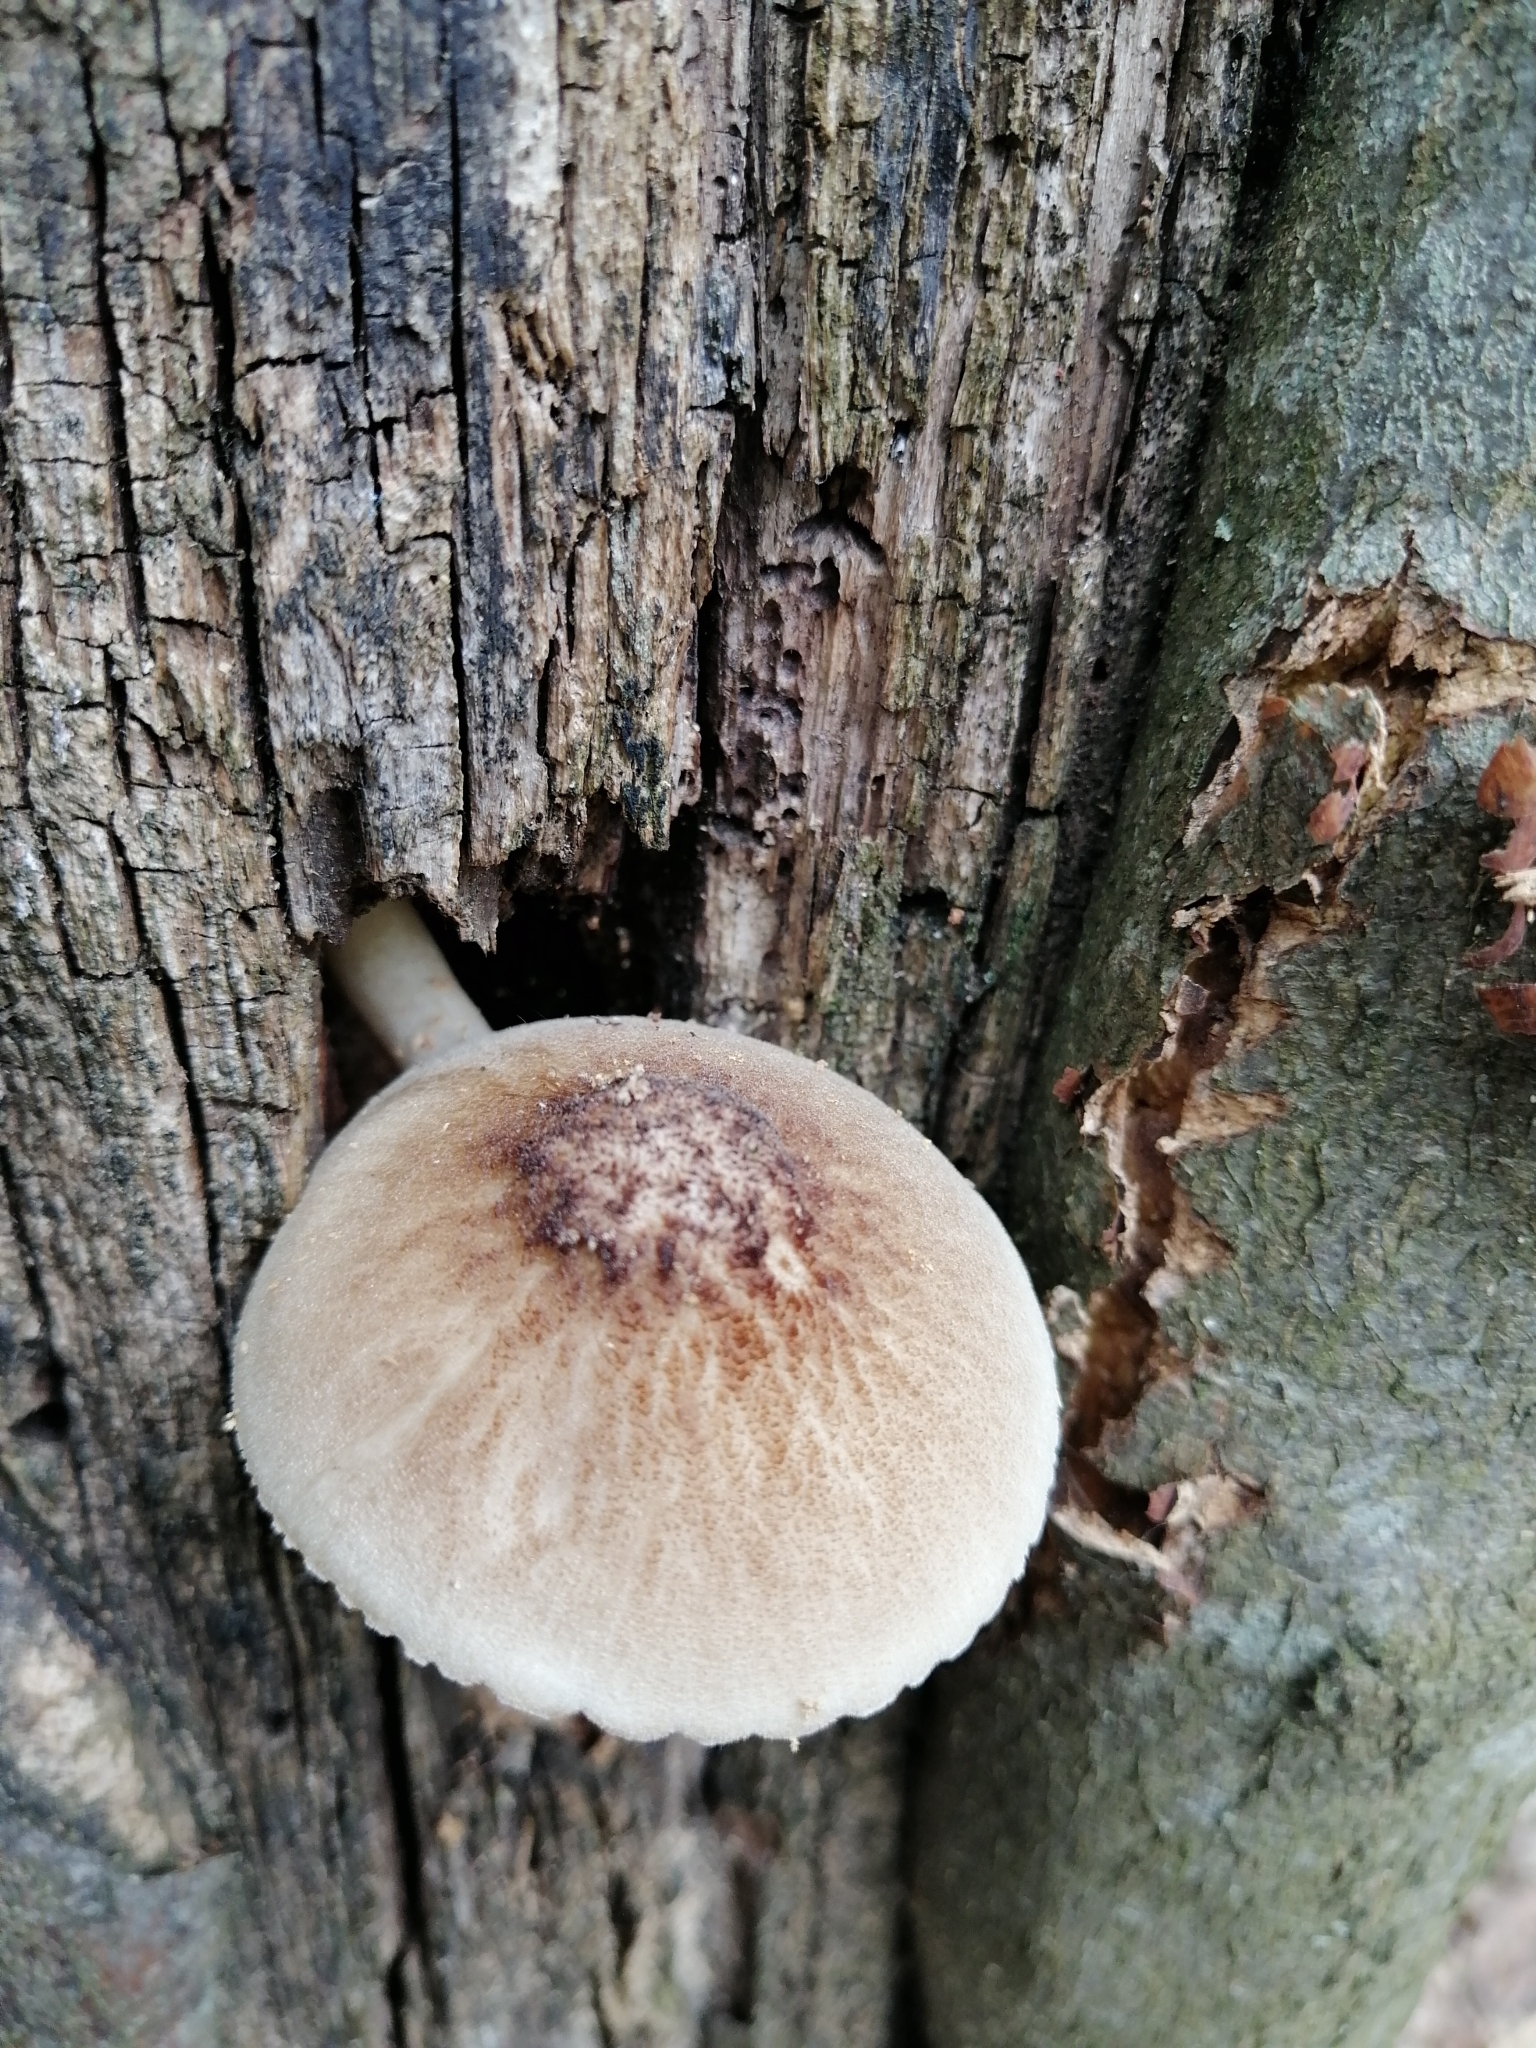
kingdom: Fungi
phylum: Basidiomycota
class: Agaricomycetes
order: Agaricales
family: Pluteaceae
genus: Pluteus
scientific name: Pluteus umbrosus
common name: Velvet shield
